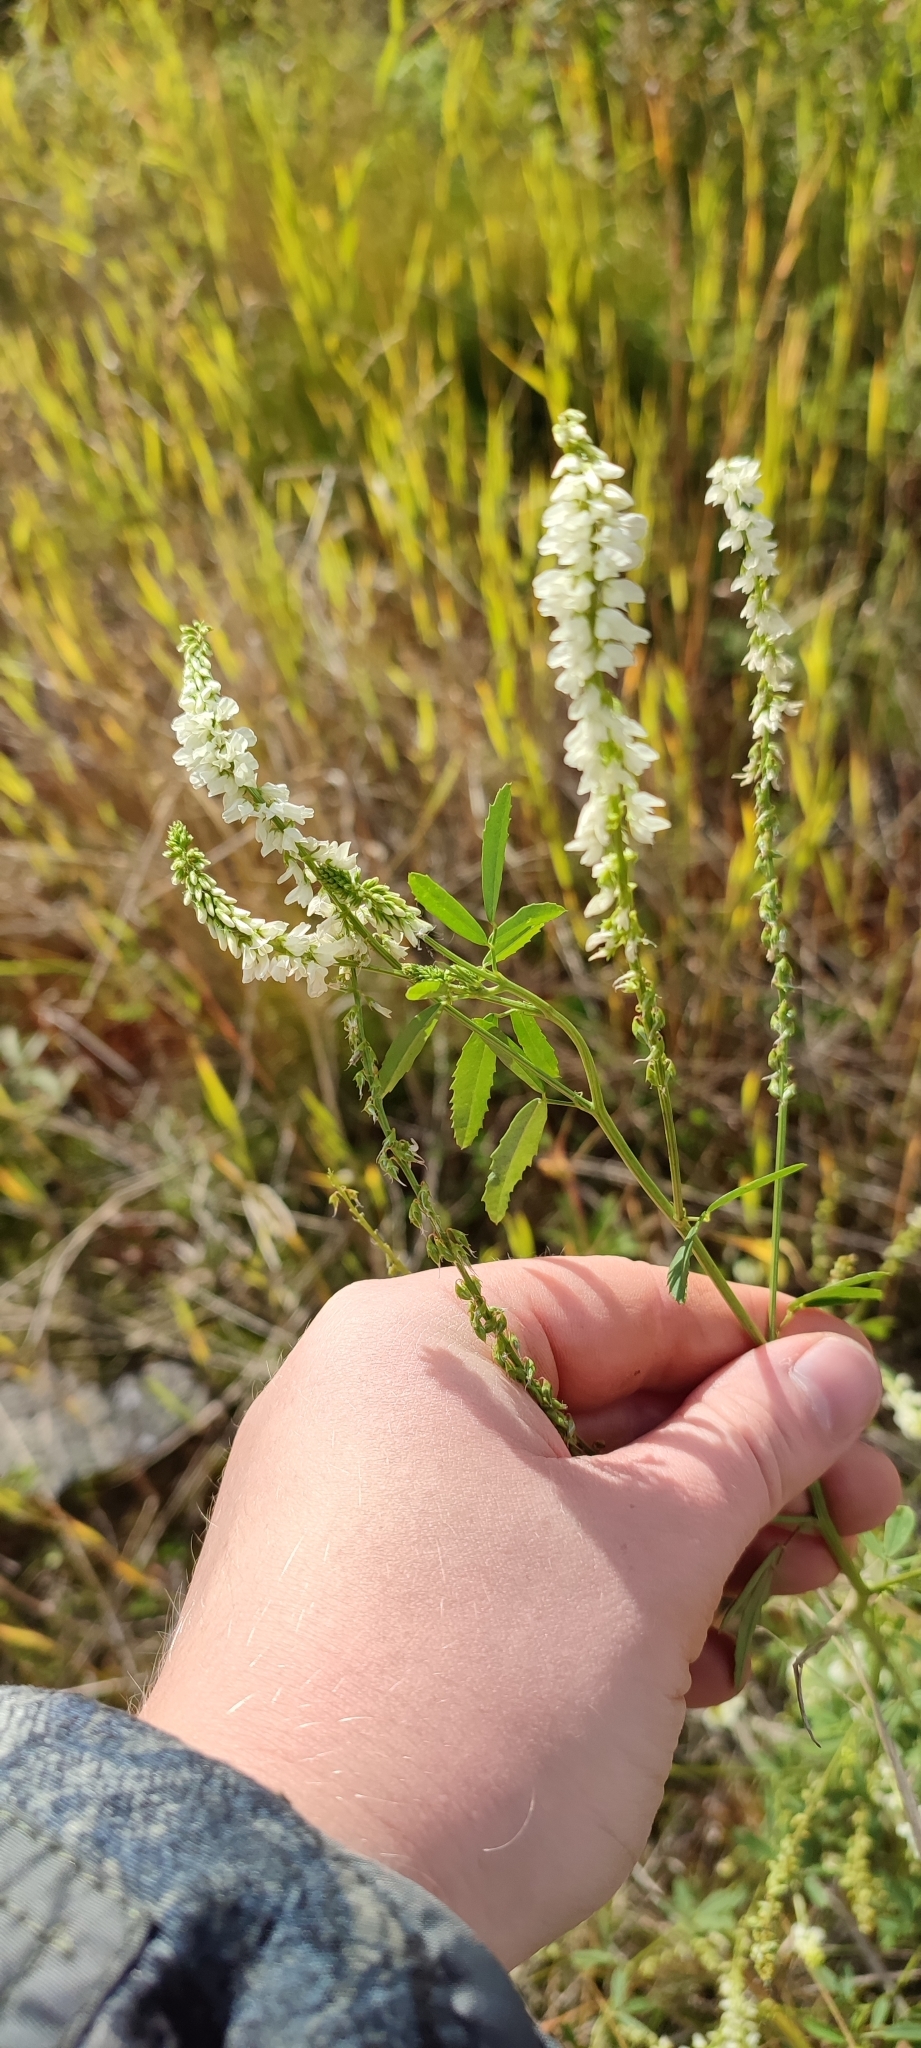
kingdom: Plantae
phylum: Tracheophyta
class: Magnoliopsida
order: Fabales
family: Fabaceae
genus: Melilotus
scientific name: Melilotus albus
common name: White melilot
